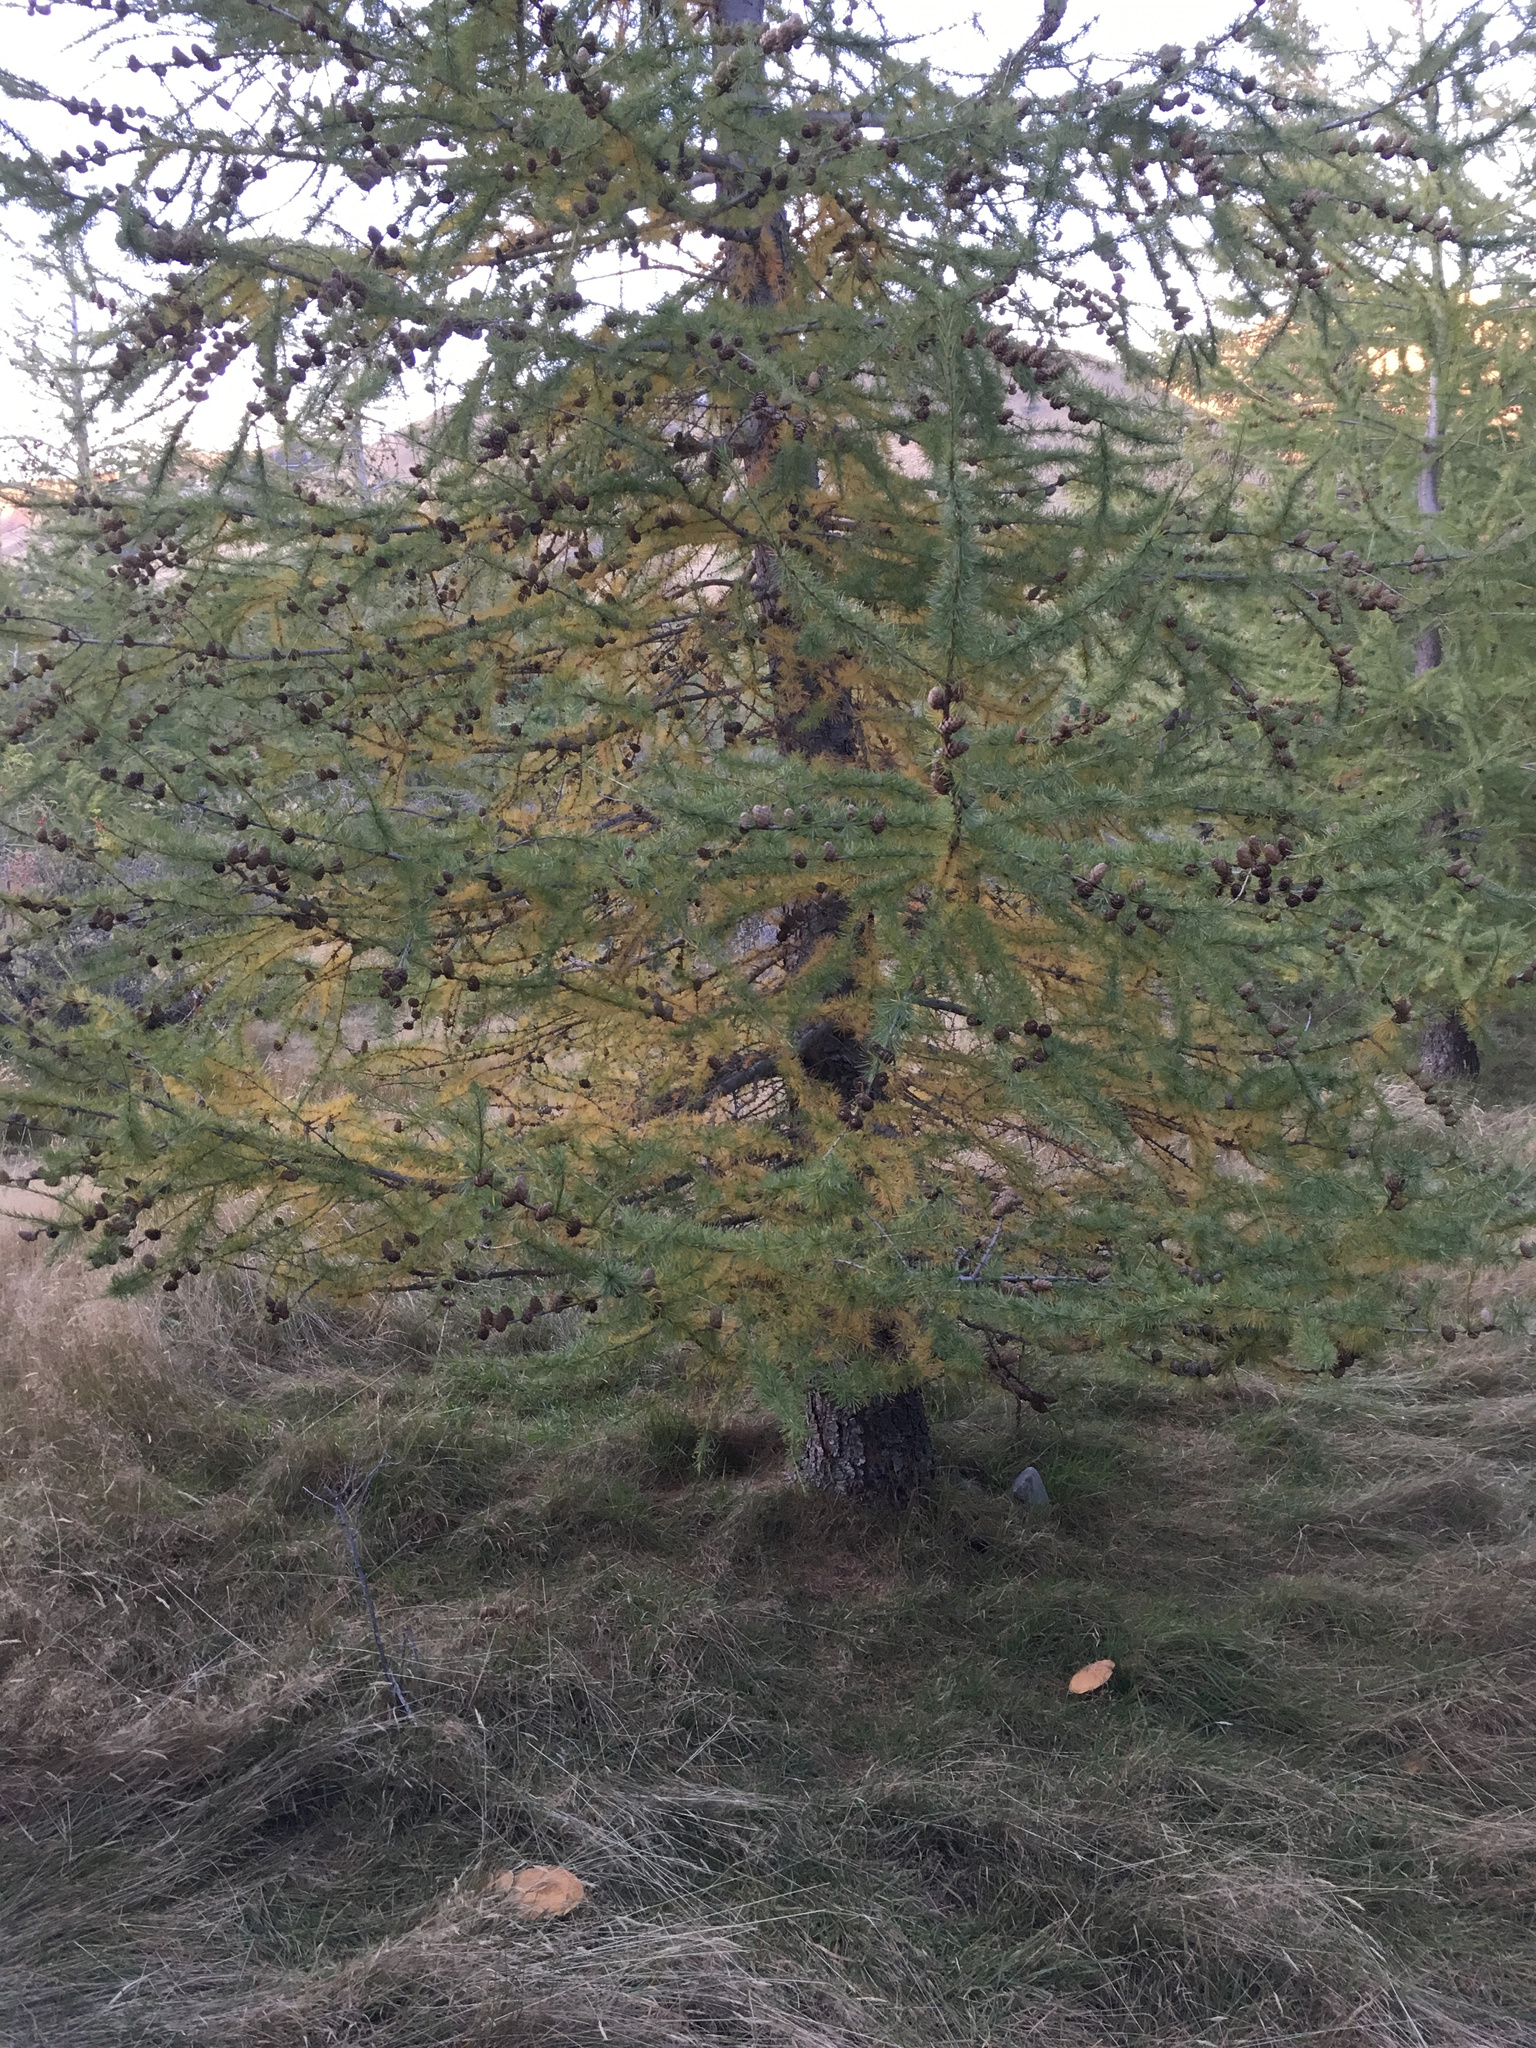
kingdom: Plantae
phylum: Tracheophyta
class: Pinopsida
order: Pinales
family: Pinaceae
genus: Larix
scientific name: Larix decidua
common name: European larch
